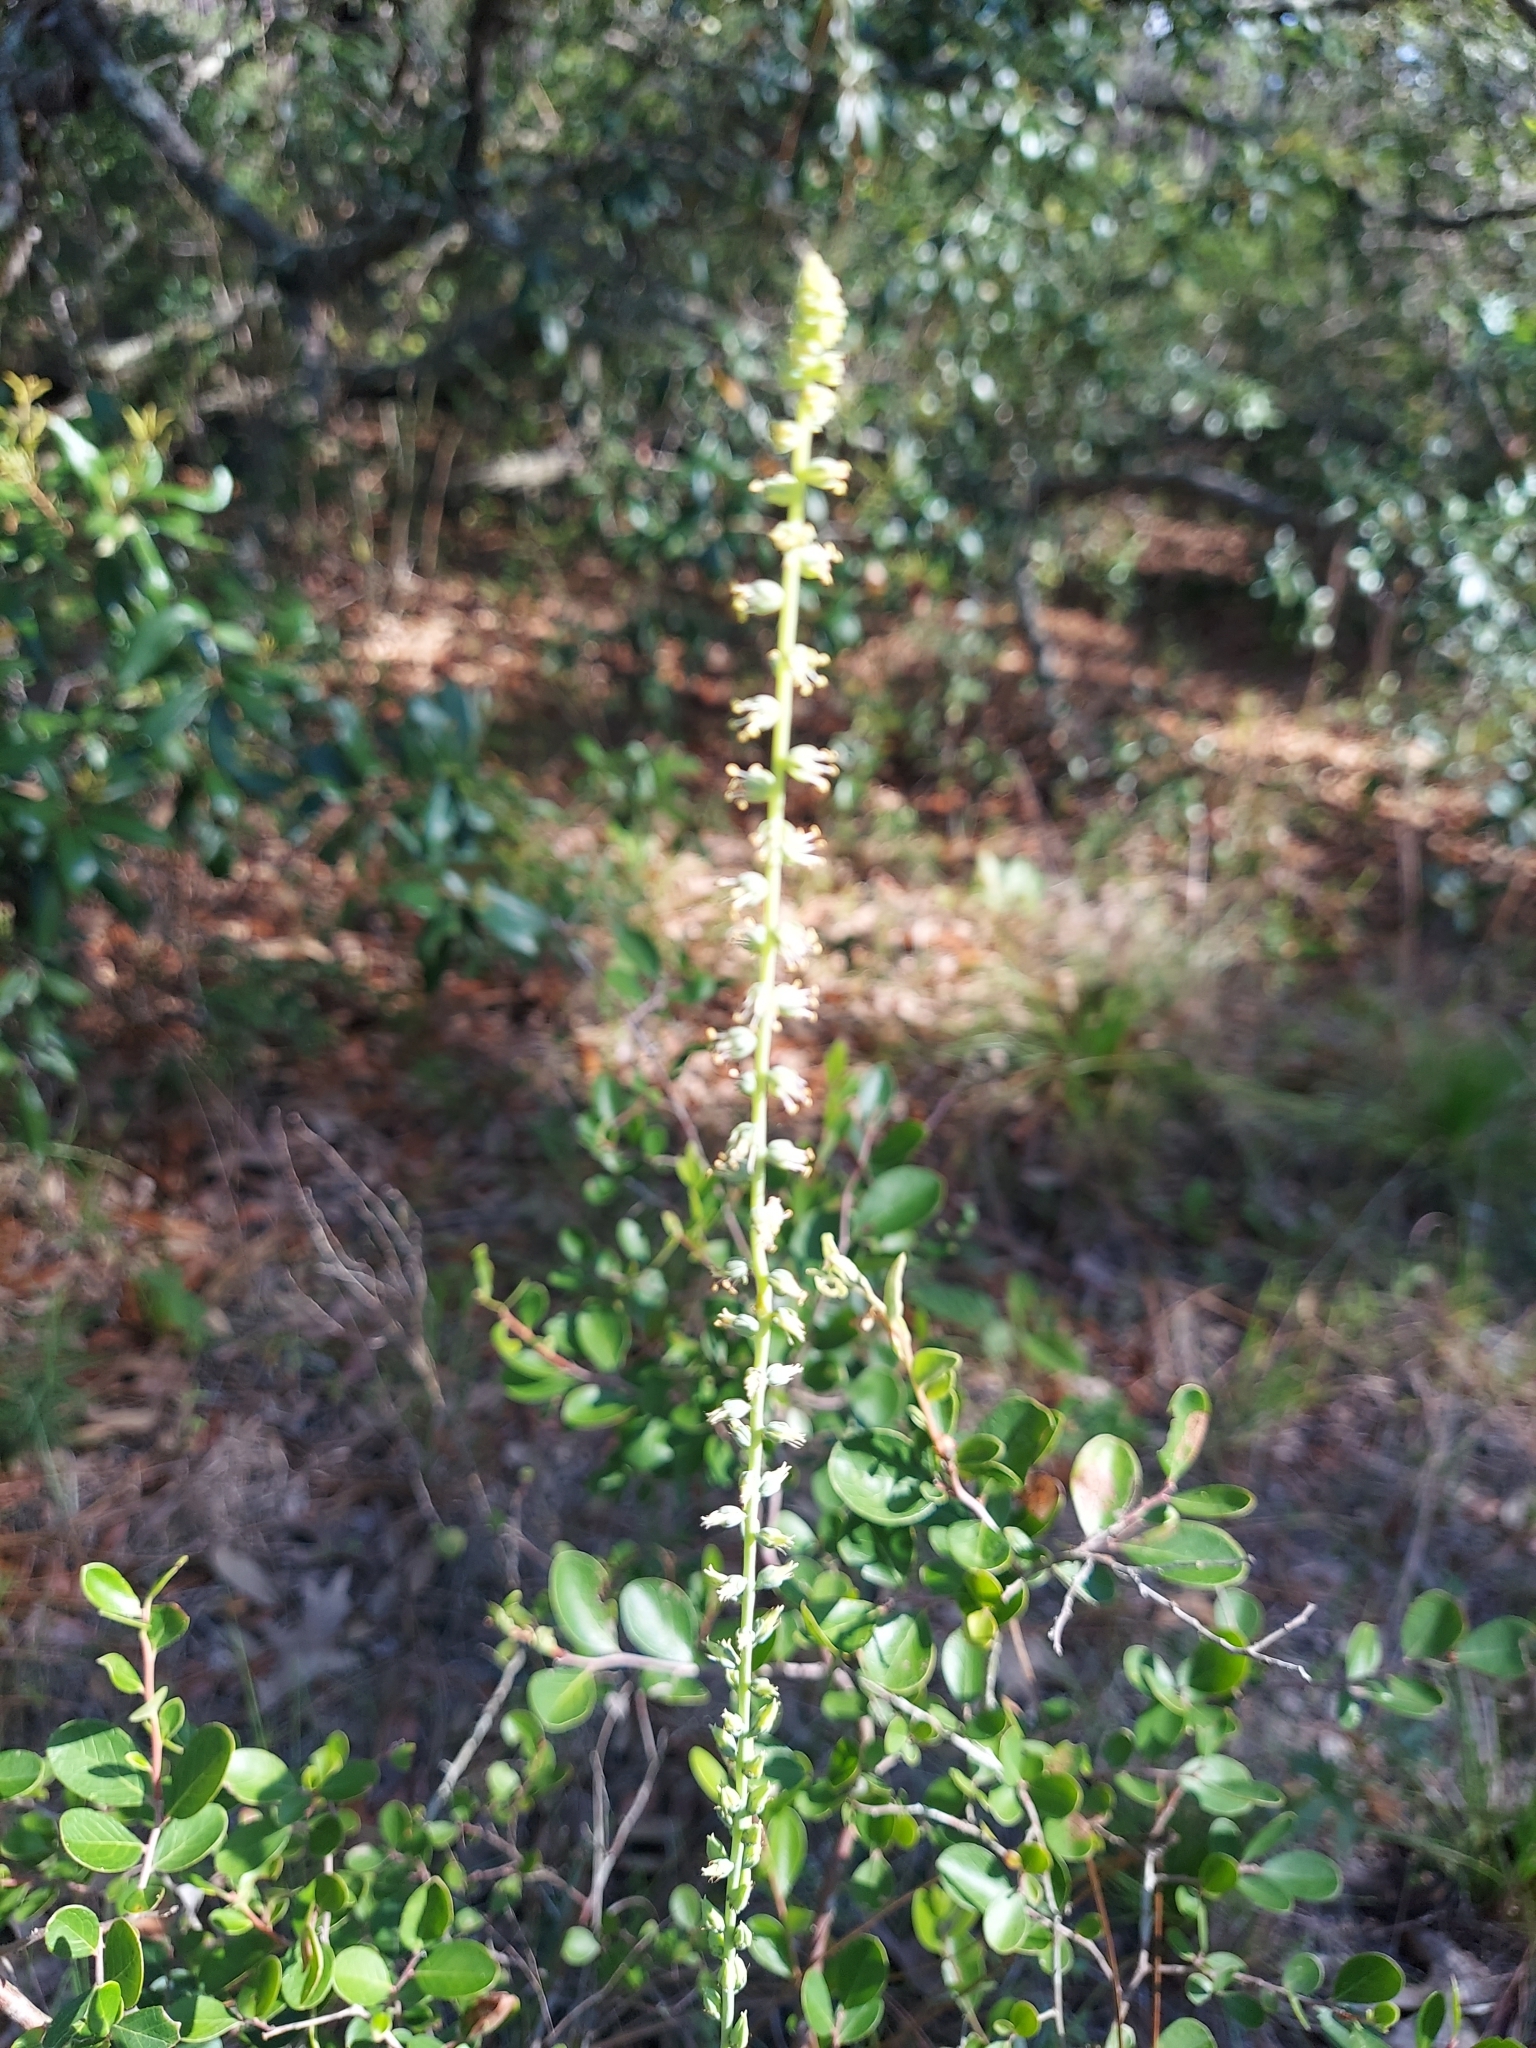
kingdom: Plantae
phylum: Tracheophyta
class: Liliopsida
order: Liliales
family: Melanthiaceae
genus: Schoenocaulon
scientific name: Schoenocaulon dubium
